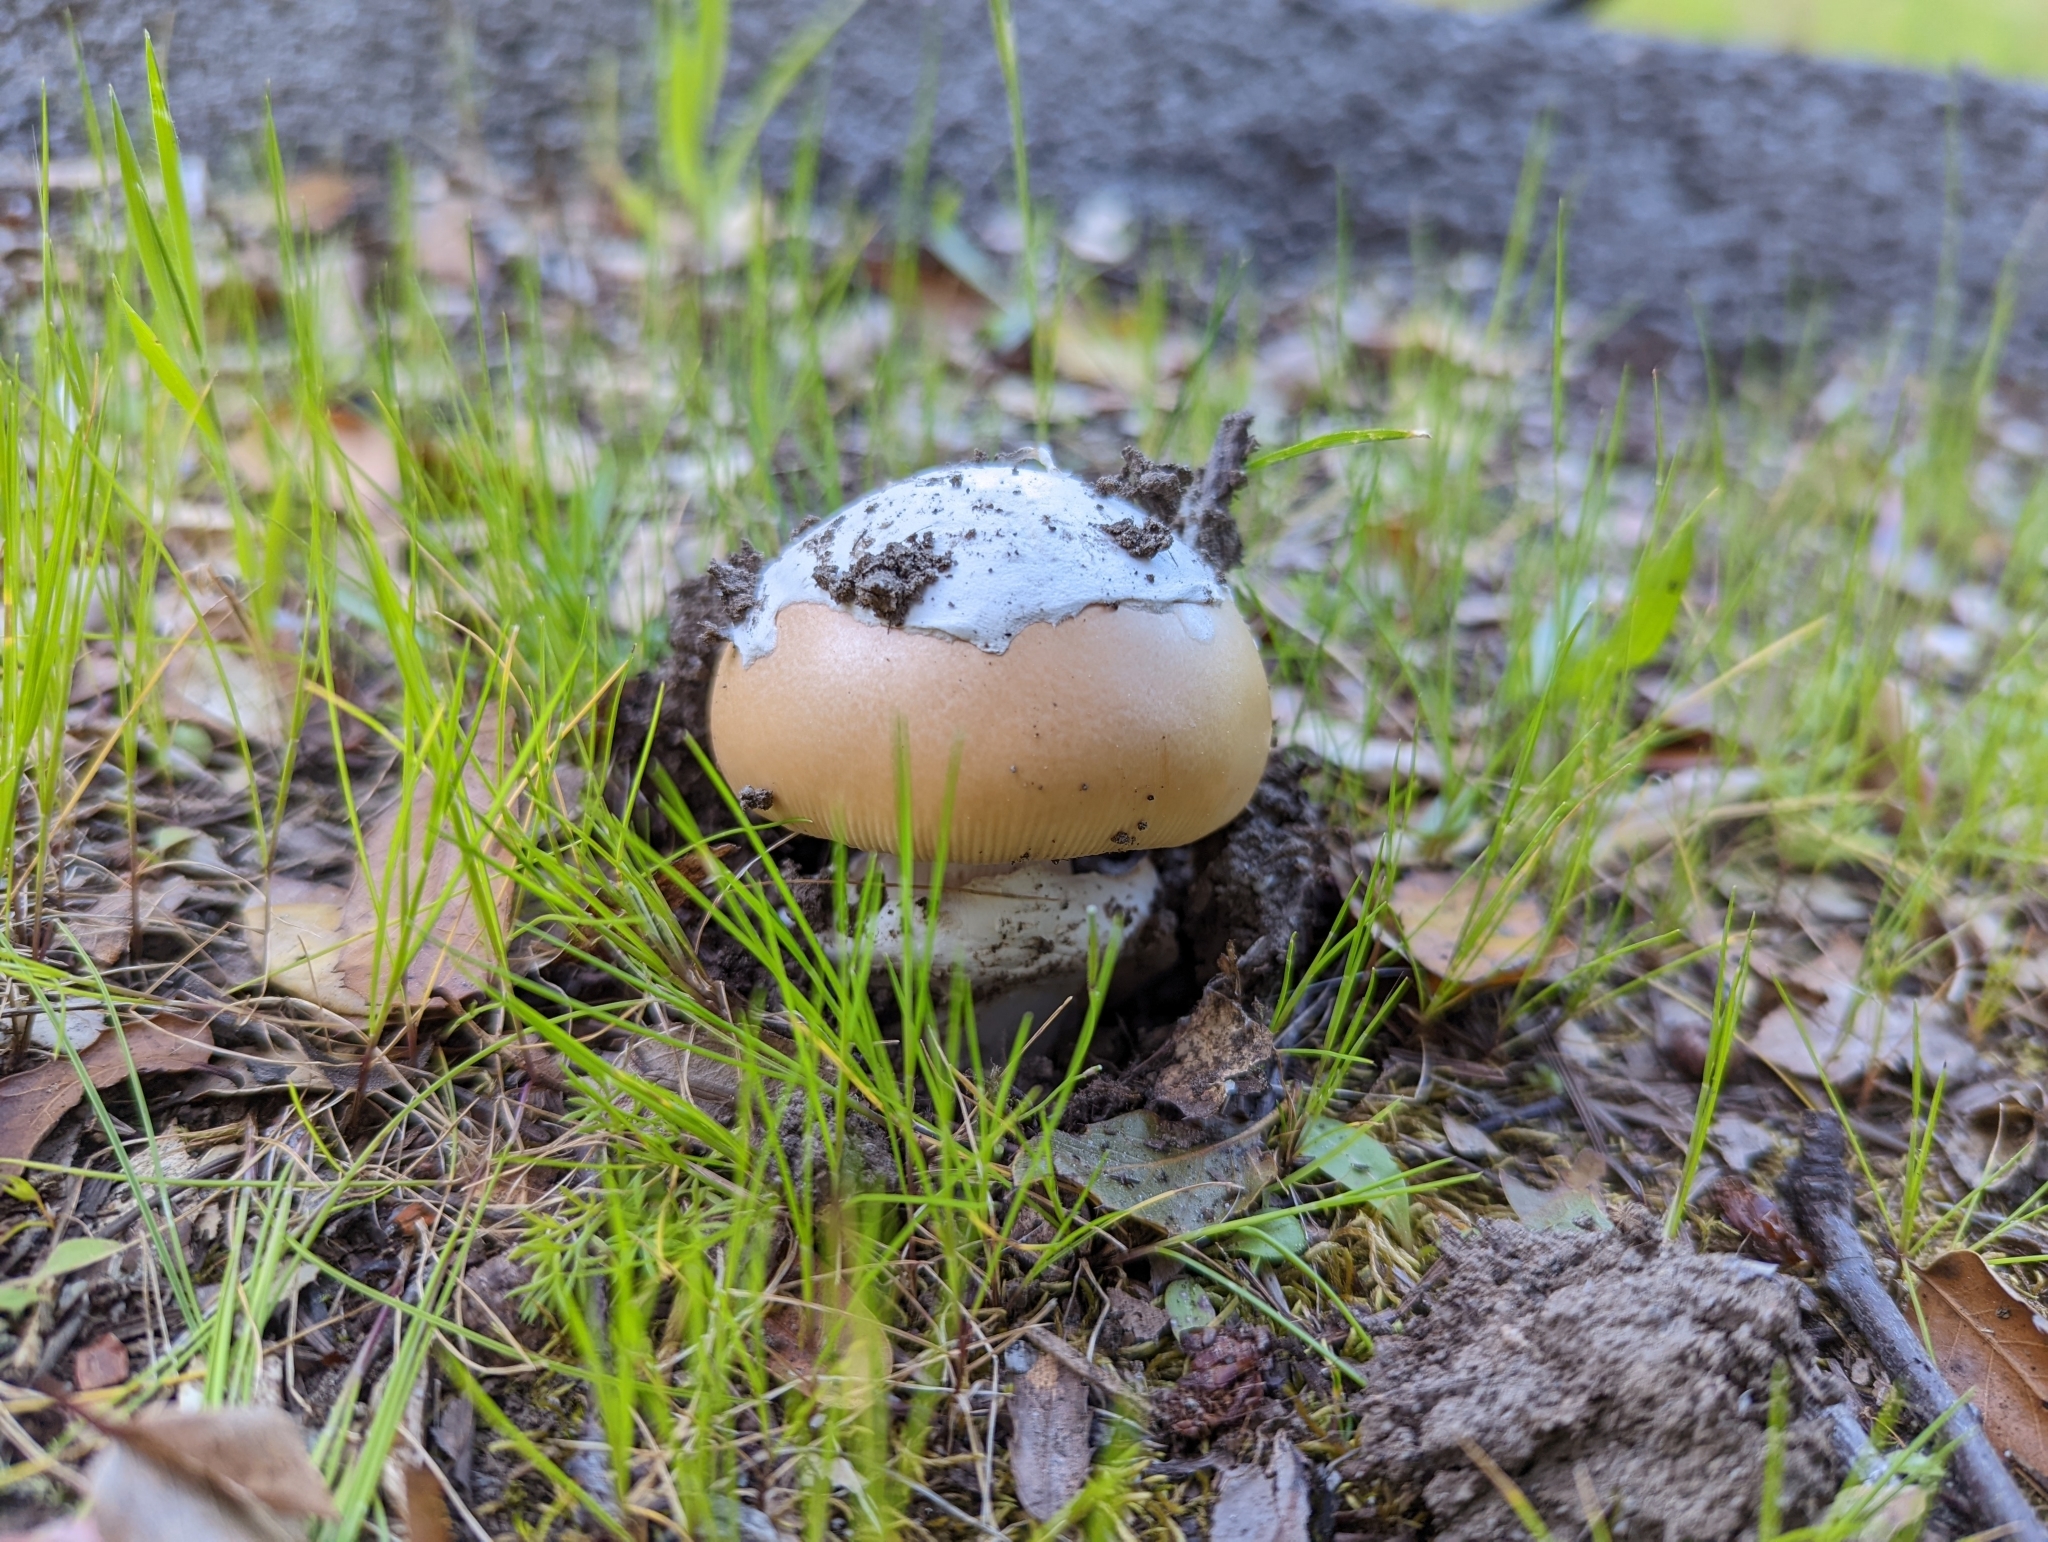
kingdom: Fungi
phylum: Basidiomycota
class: Agaricomycetes
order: Agaricales
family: Amanitaceae
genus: Amanita
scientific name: Amanita velosa
